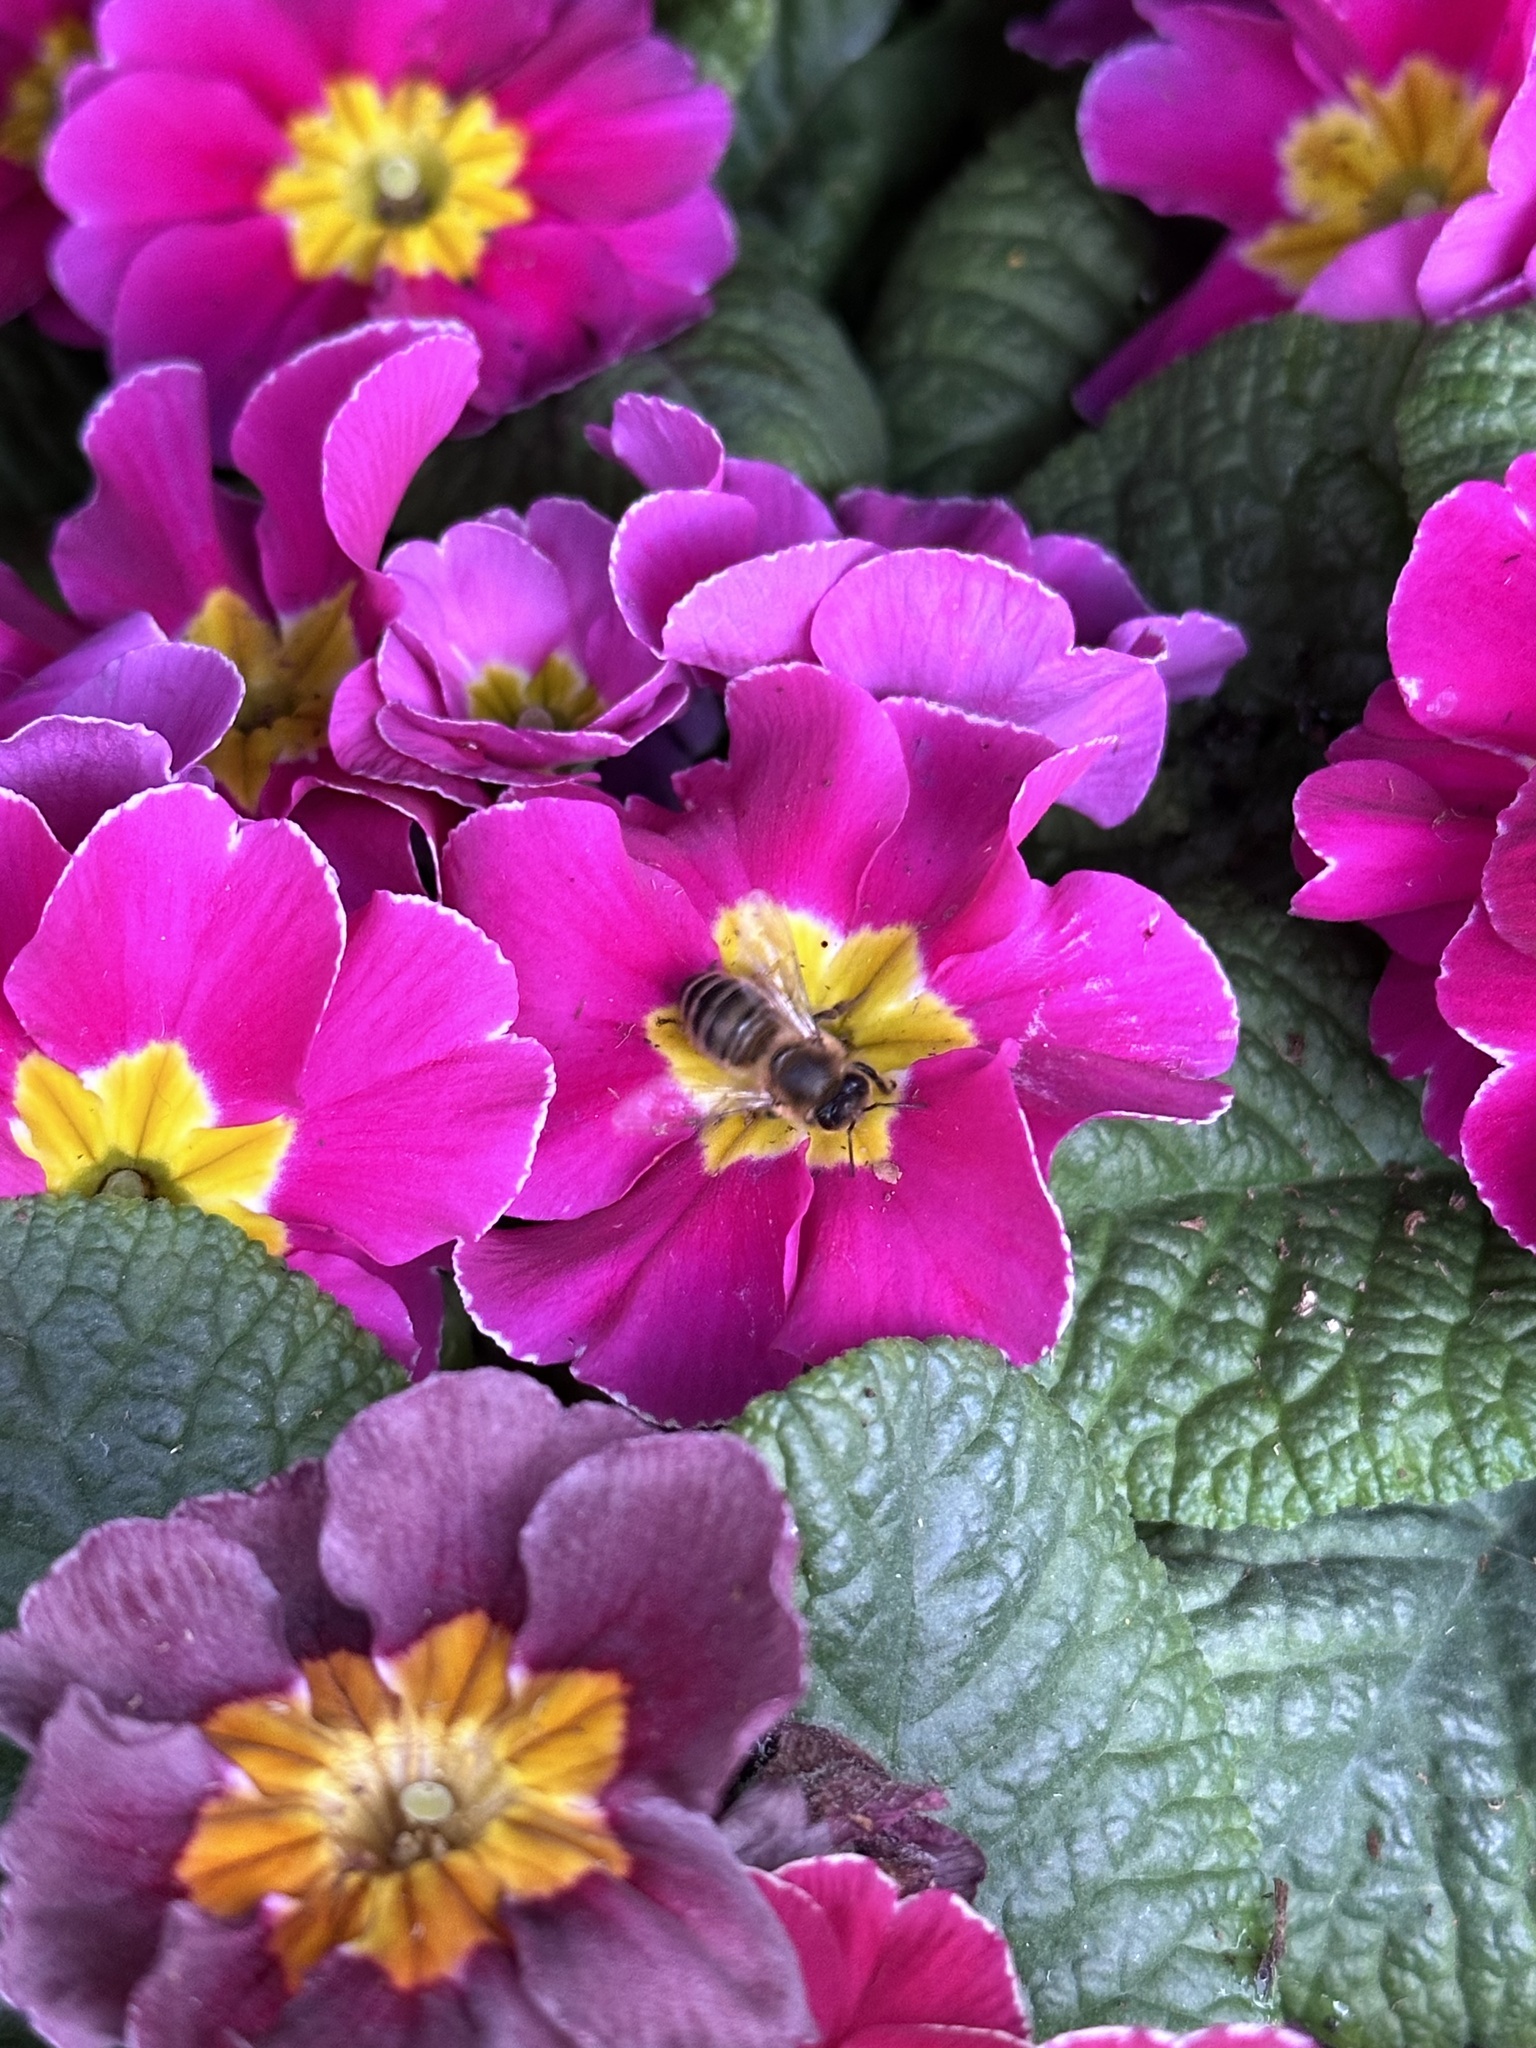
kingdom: Animalia
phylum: Arthropoda
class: Insecta
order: Hymenoptera
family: Apidae
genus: Apis
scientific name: Apis mellifera
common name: Honey bee
